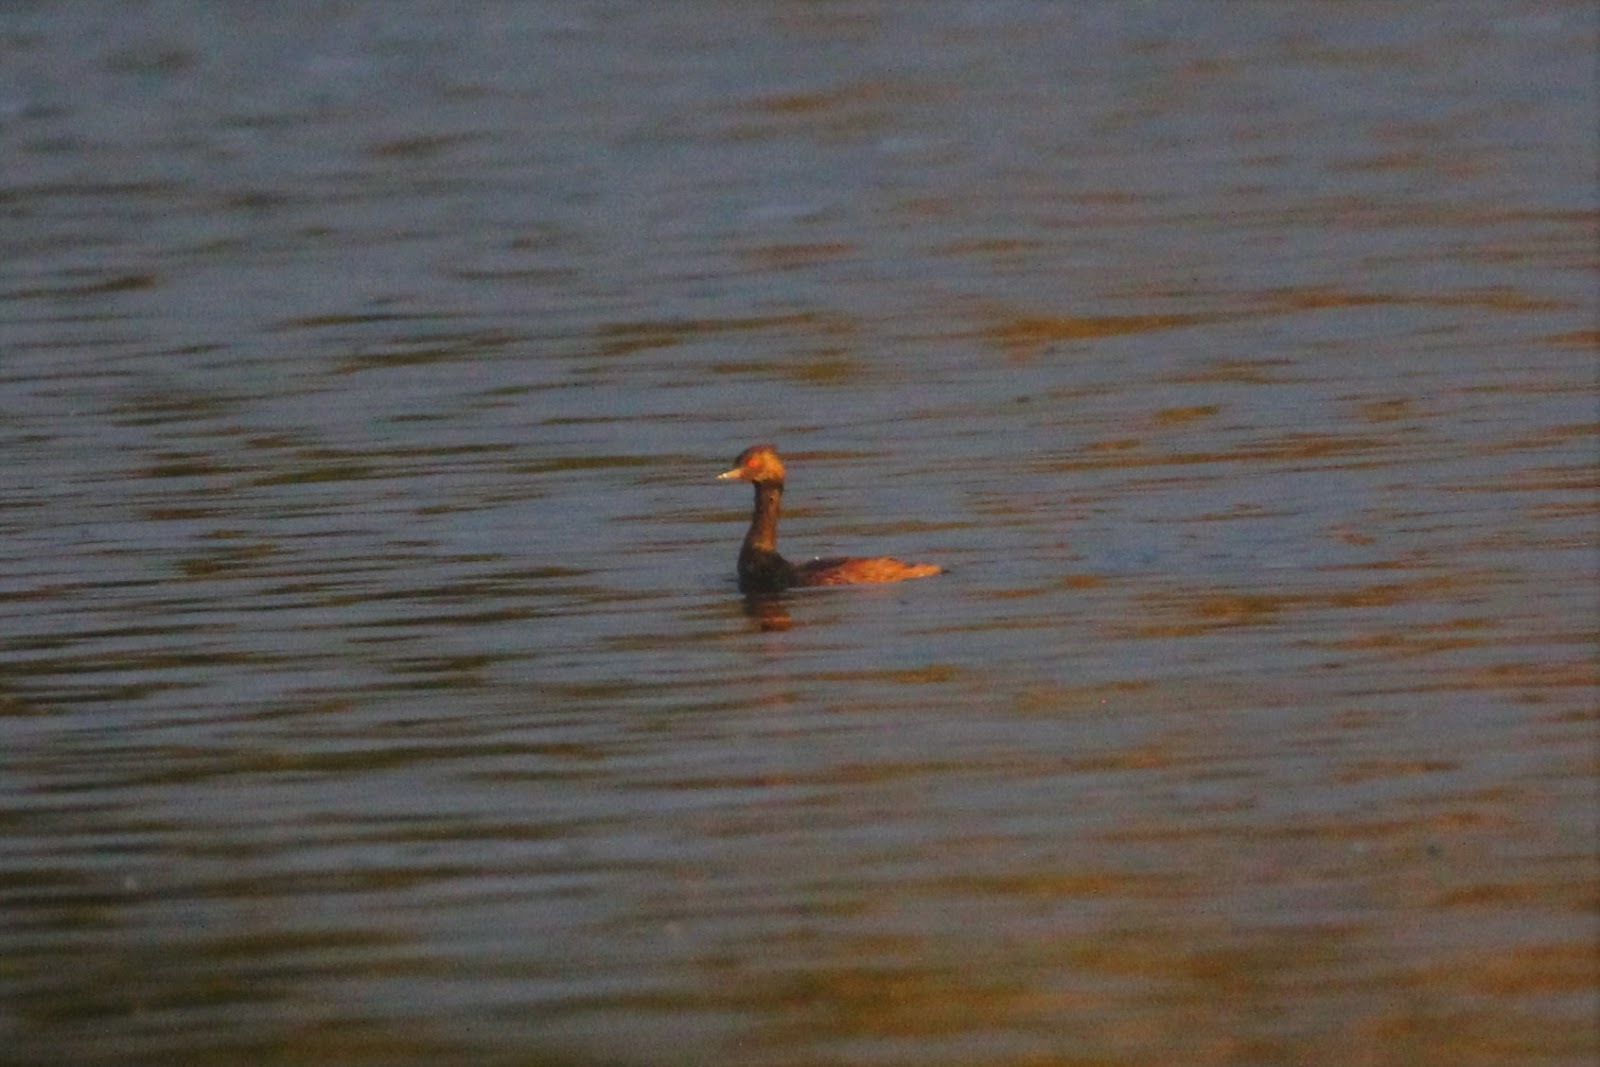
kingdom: Animalia
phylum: Chordata
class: Aves
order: Podicipediformes
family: Podicipedidae
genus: Podiceps
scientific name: Podiceps nigricollis
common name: Black-necked grebe
